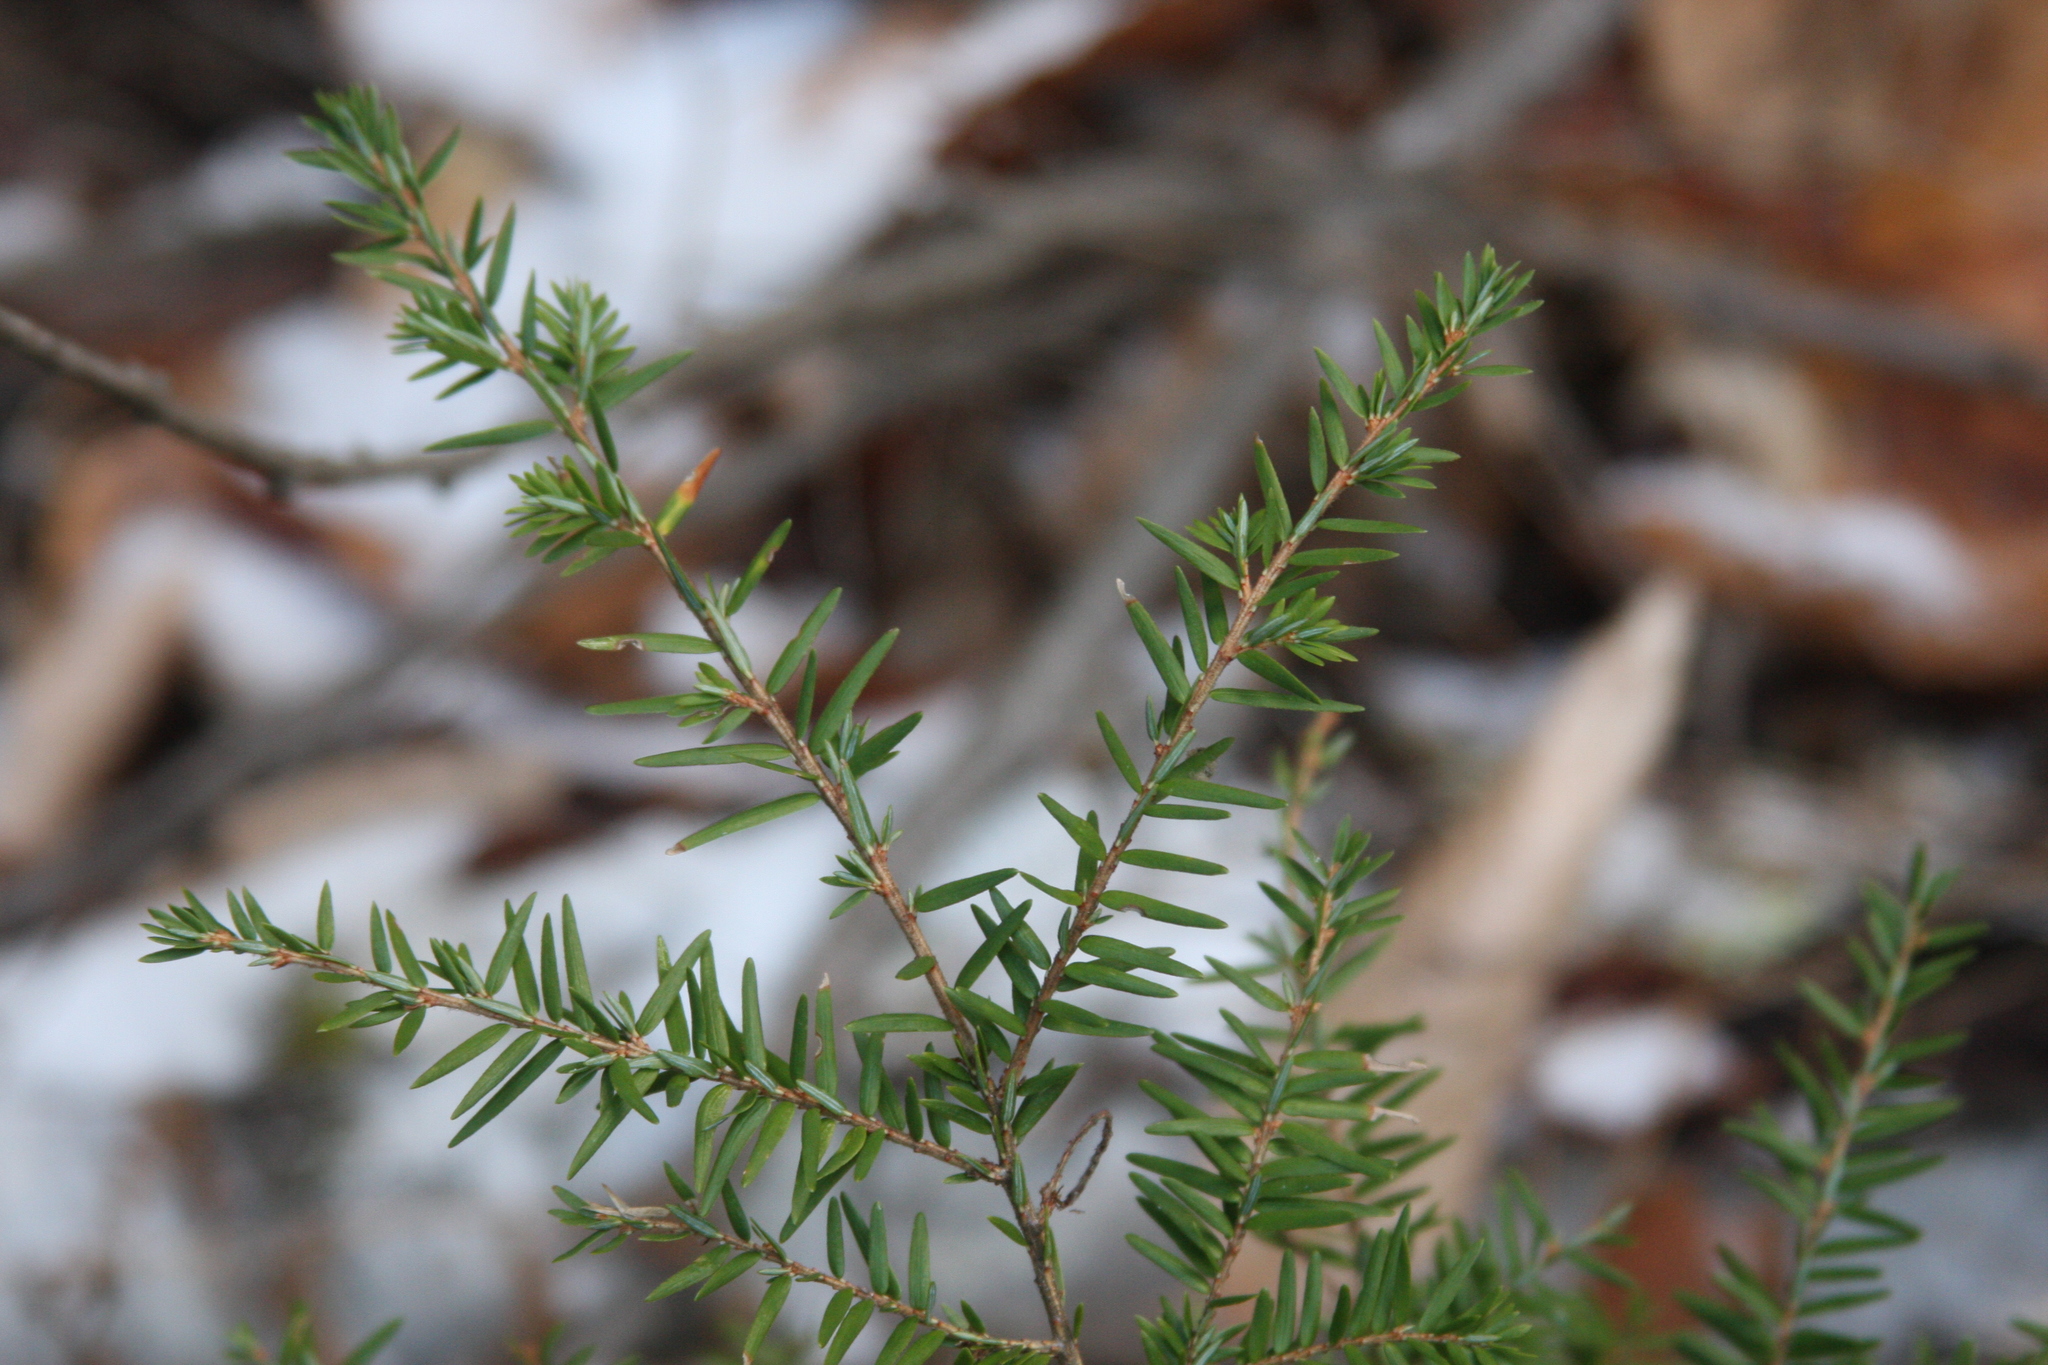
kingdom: Plantae
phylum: Tracheophyta
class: Pinopsida
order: Pinales
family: Pinaceae
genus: Tsuga
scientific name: Tsuga canadensis
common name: Eastern hemlock
